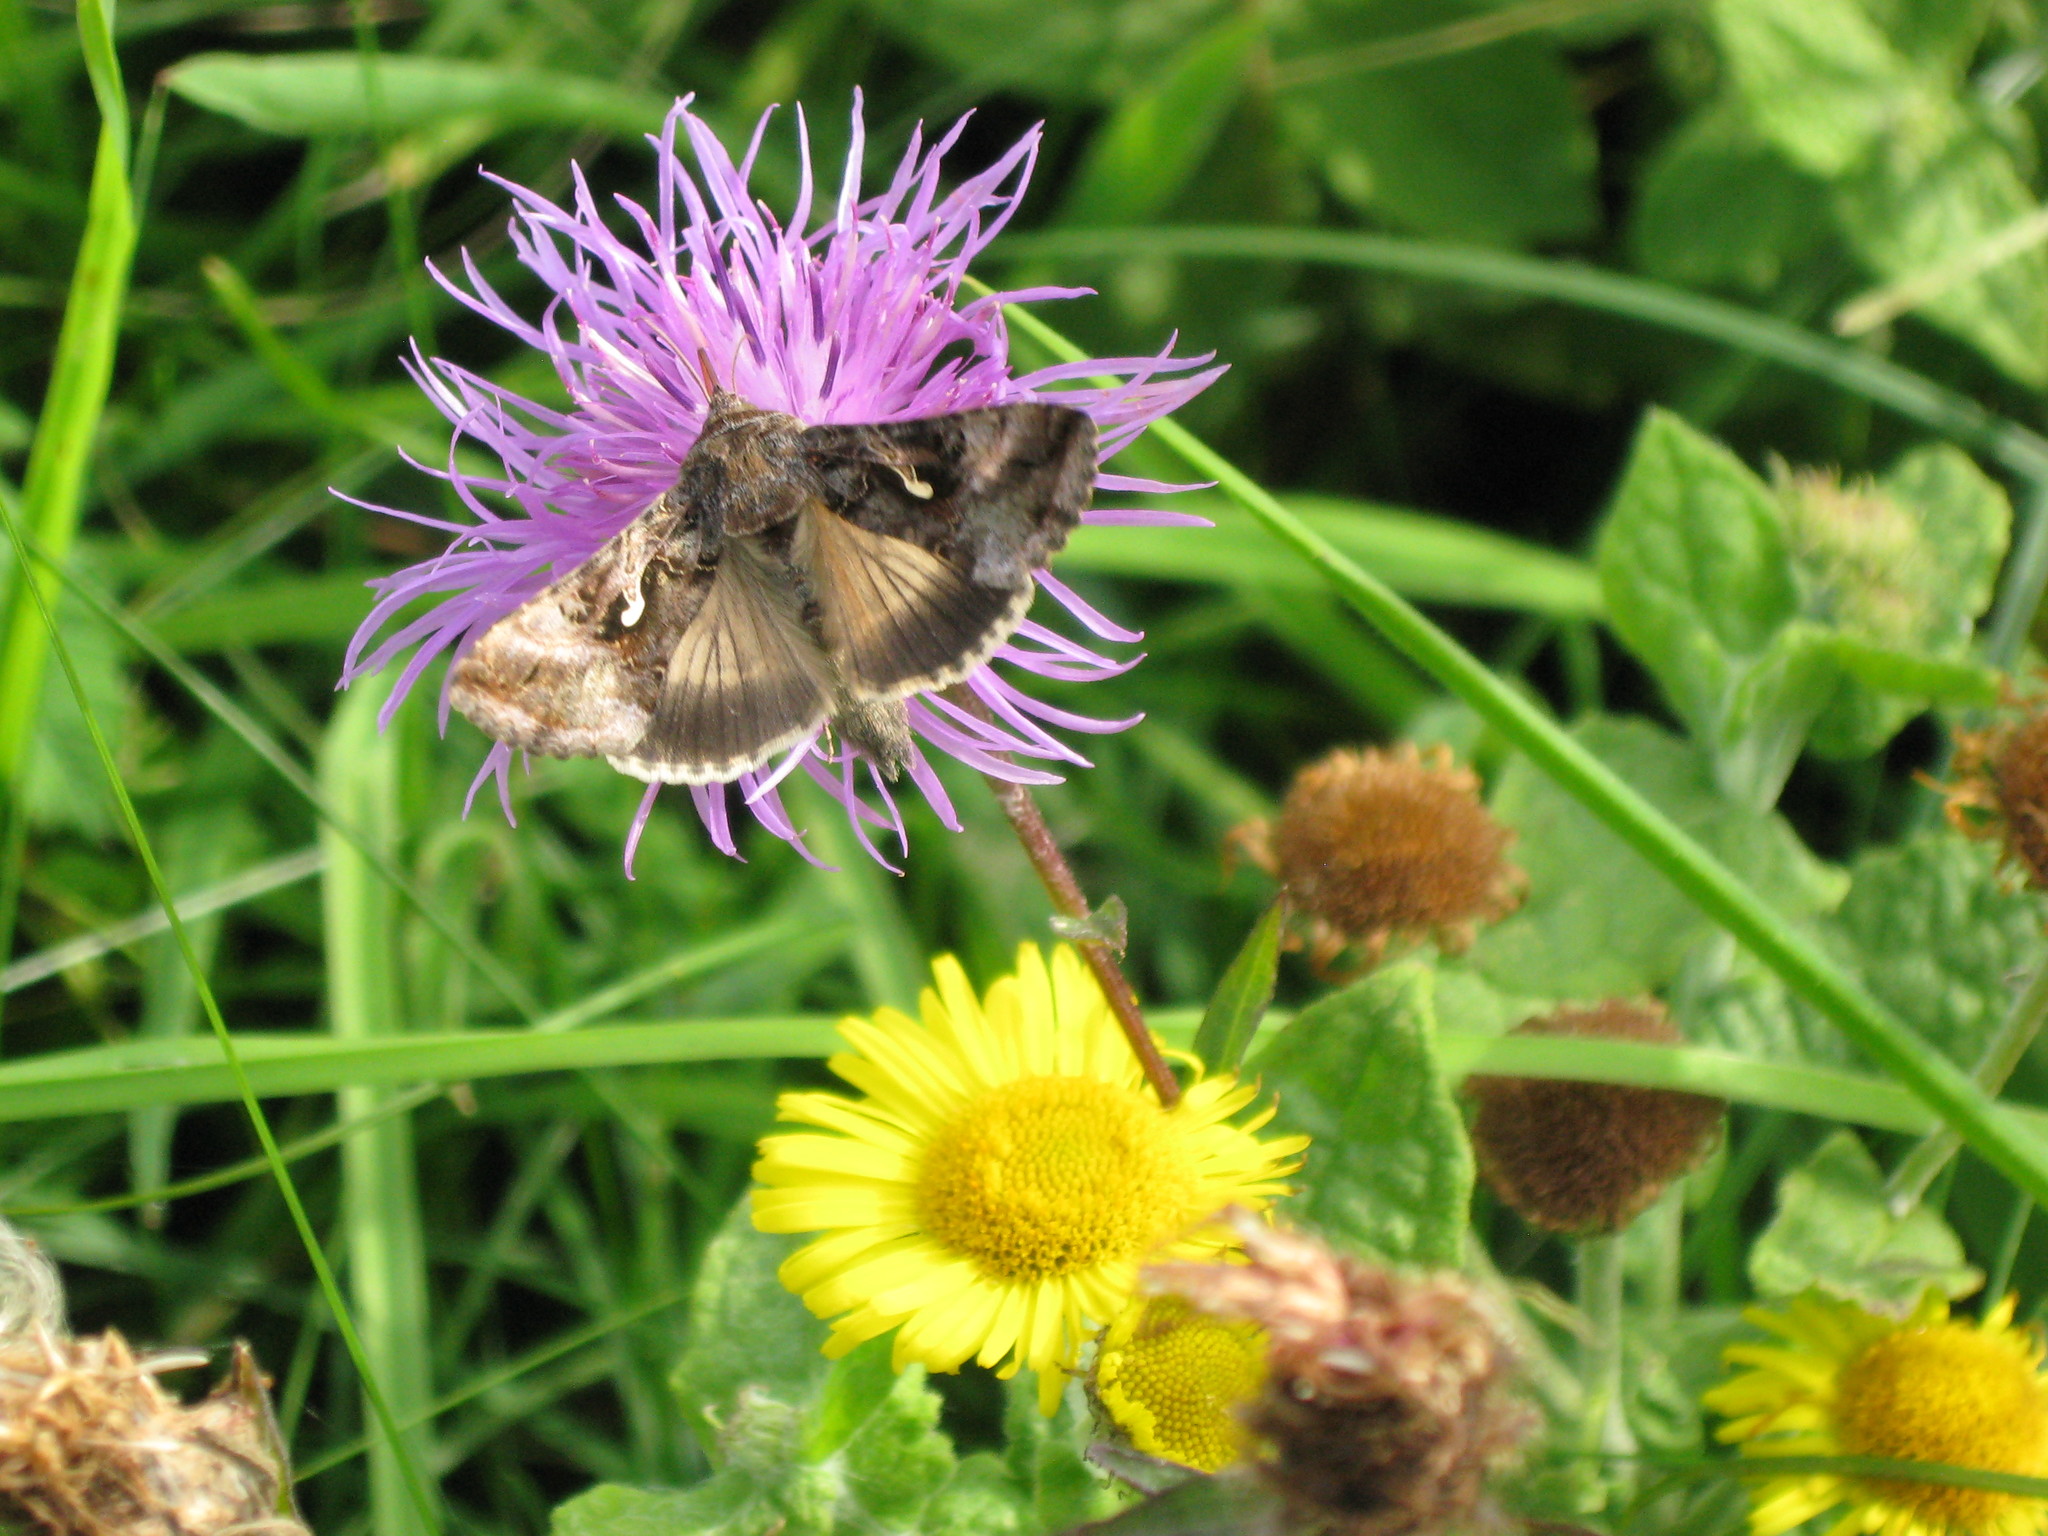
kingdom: Animalia
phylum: Arthropoda
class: Insecta
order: Lepidoptera
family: Noctuidae
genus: Autographa
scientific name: Autographa gamma
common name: Silver y
